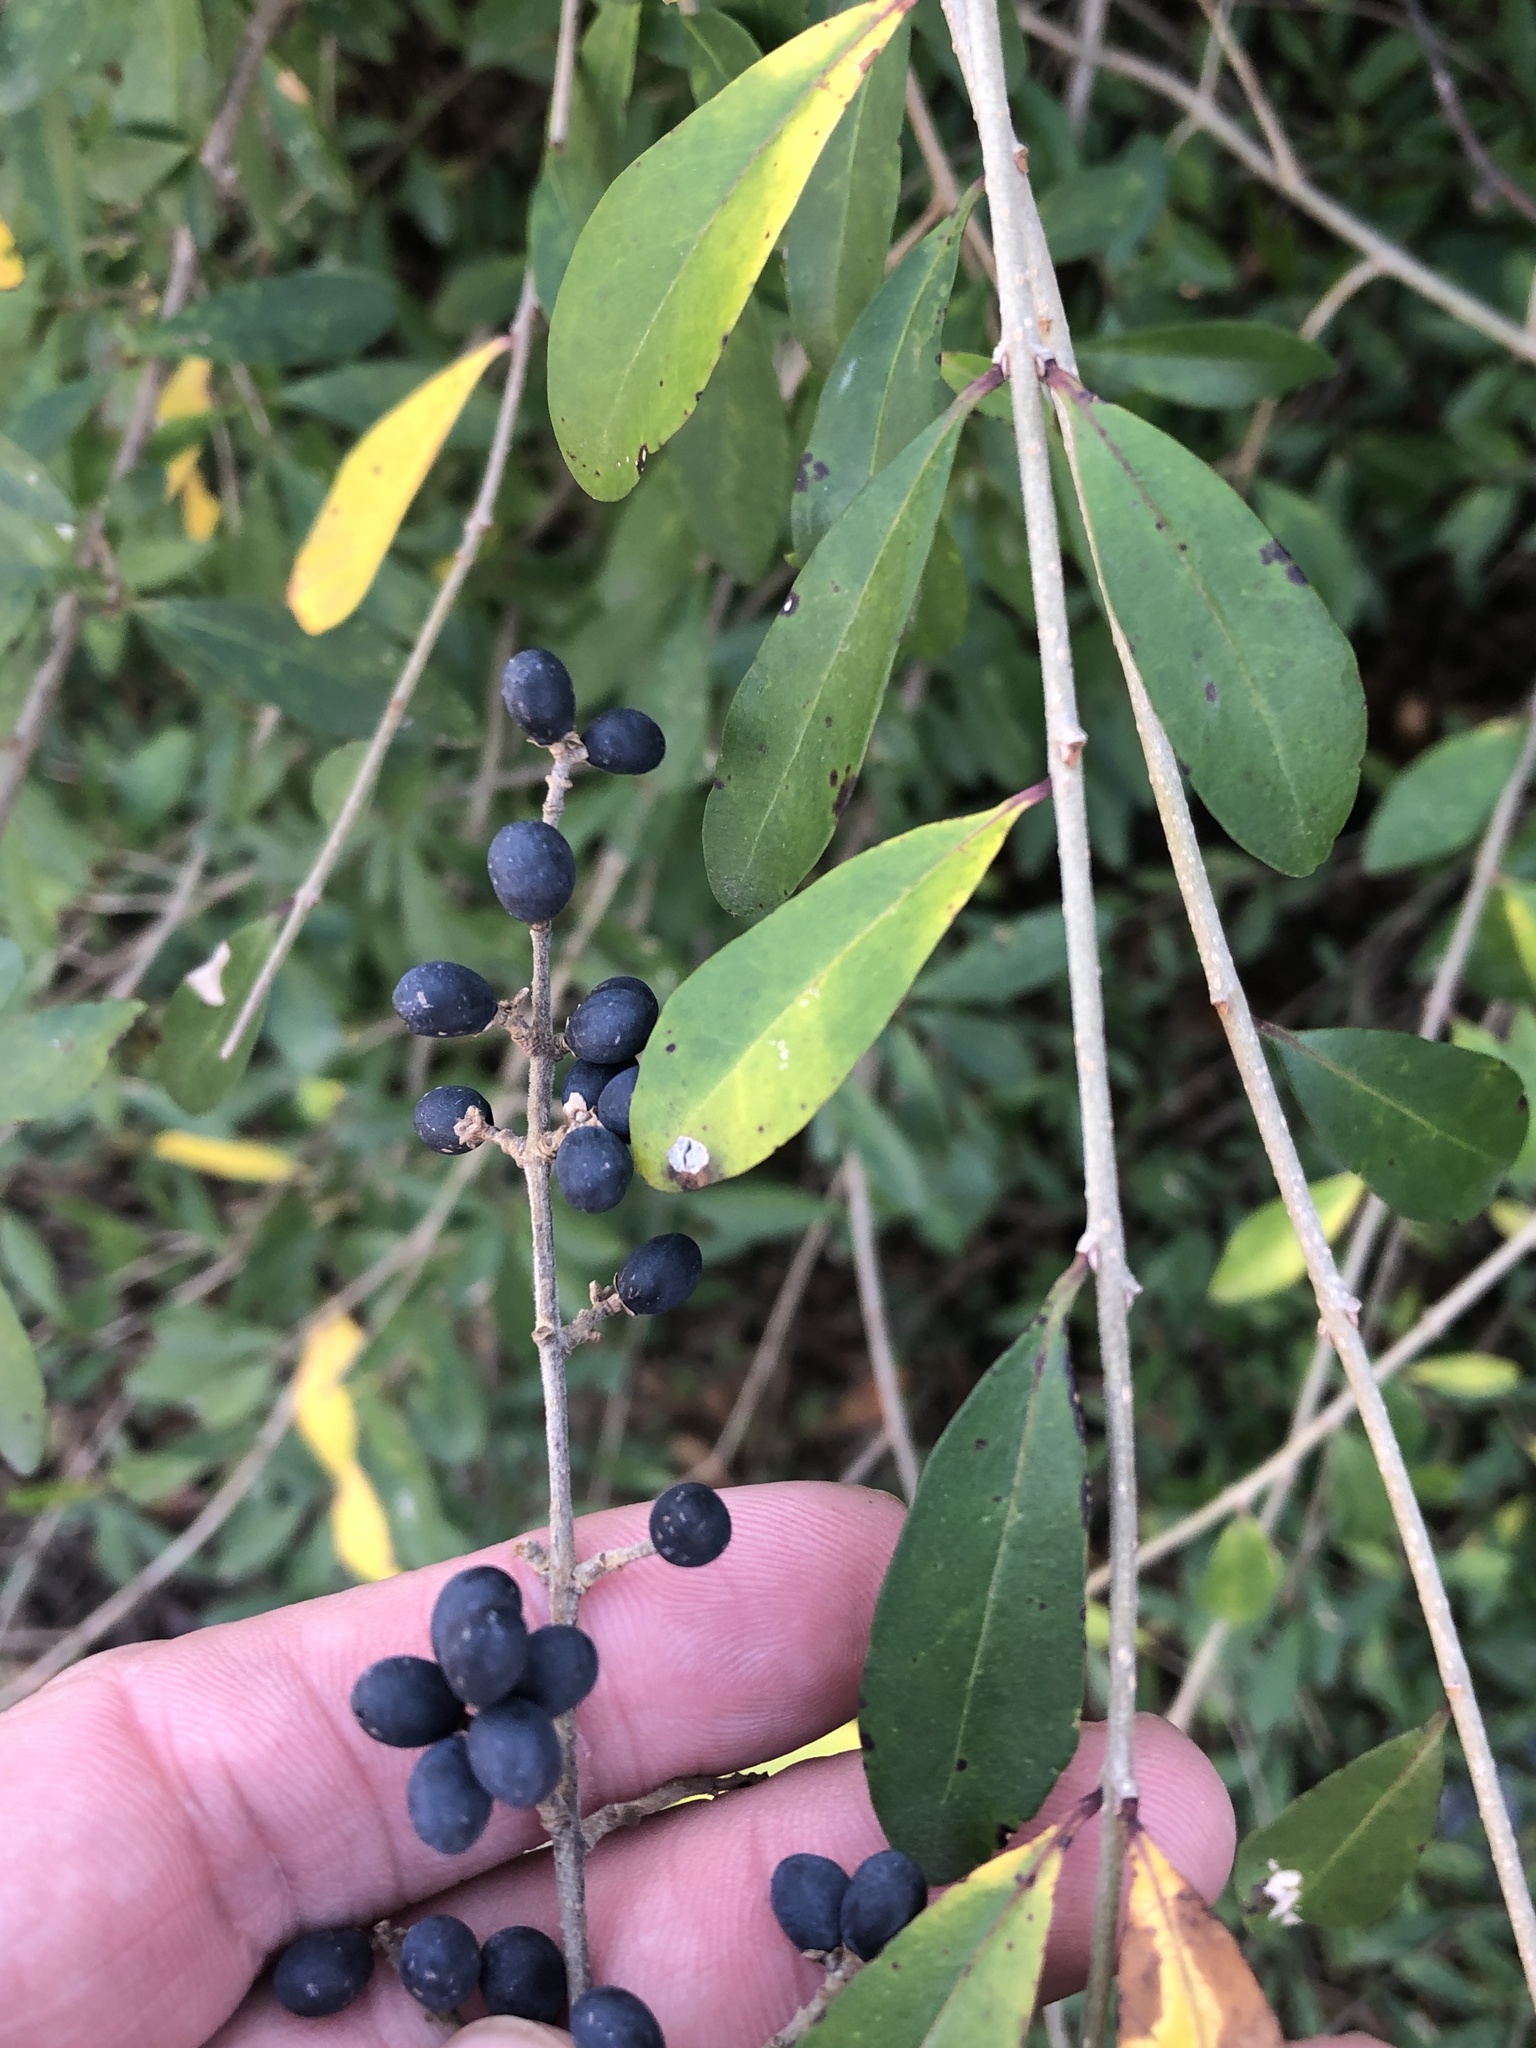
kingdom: Plantae
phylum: Tracheophyta
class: Magnoliopsida
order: Lamiales
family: Oleaceae
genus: Ligustrum
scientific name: Ligustrum quihoui
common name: Waxyleaf privet
